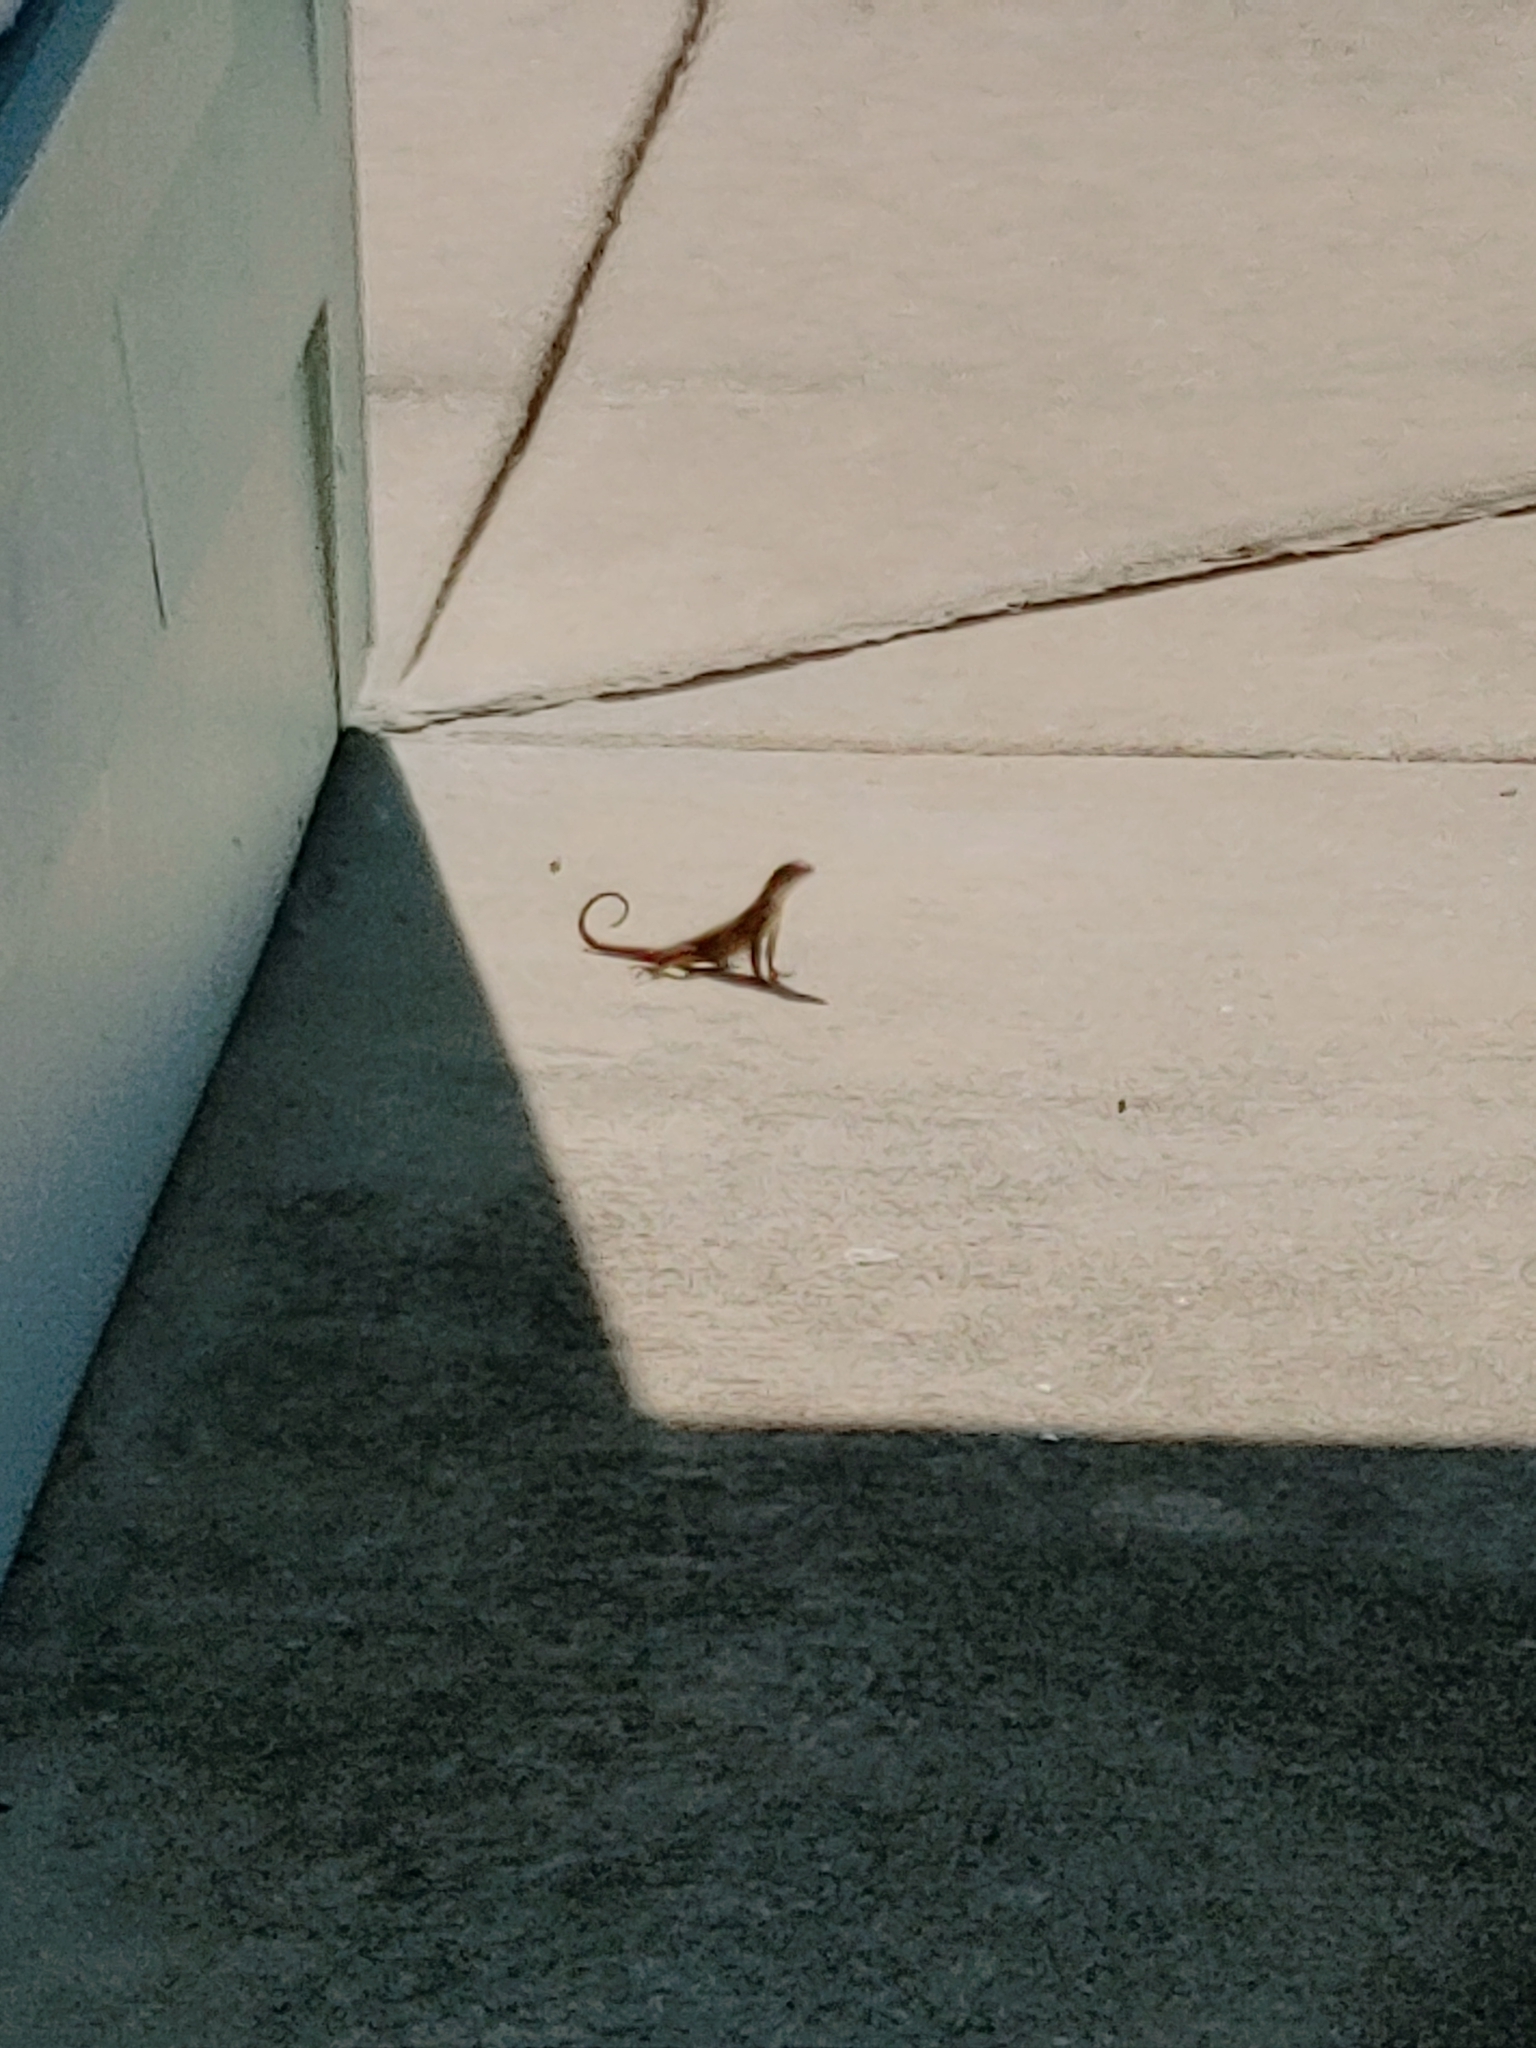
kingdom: Animalia
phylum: Chordata
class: Squamata
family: Leiocephalidae
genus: Leiocephalus
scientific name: Leiocephalus carinatus
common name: Northern curly-tailed lizard
